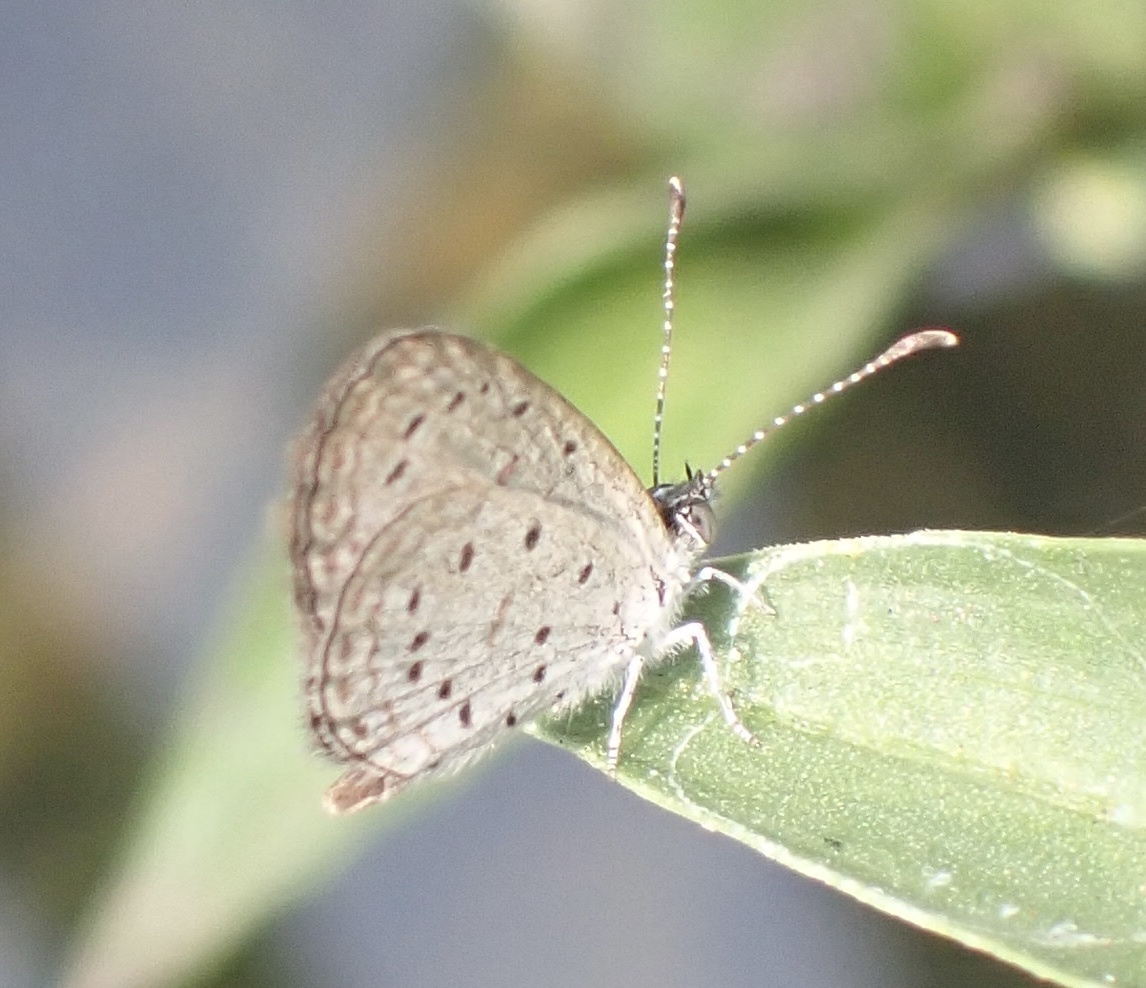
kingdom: Animalia
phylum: Arthropoda
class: Insecta
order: Lepidoptera
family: Lycaenidae
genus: Zizula
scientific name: Zizula hylax
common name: Gaika blue
